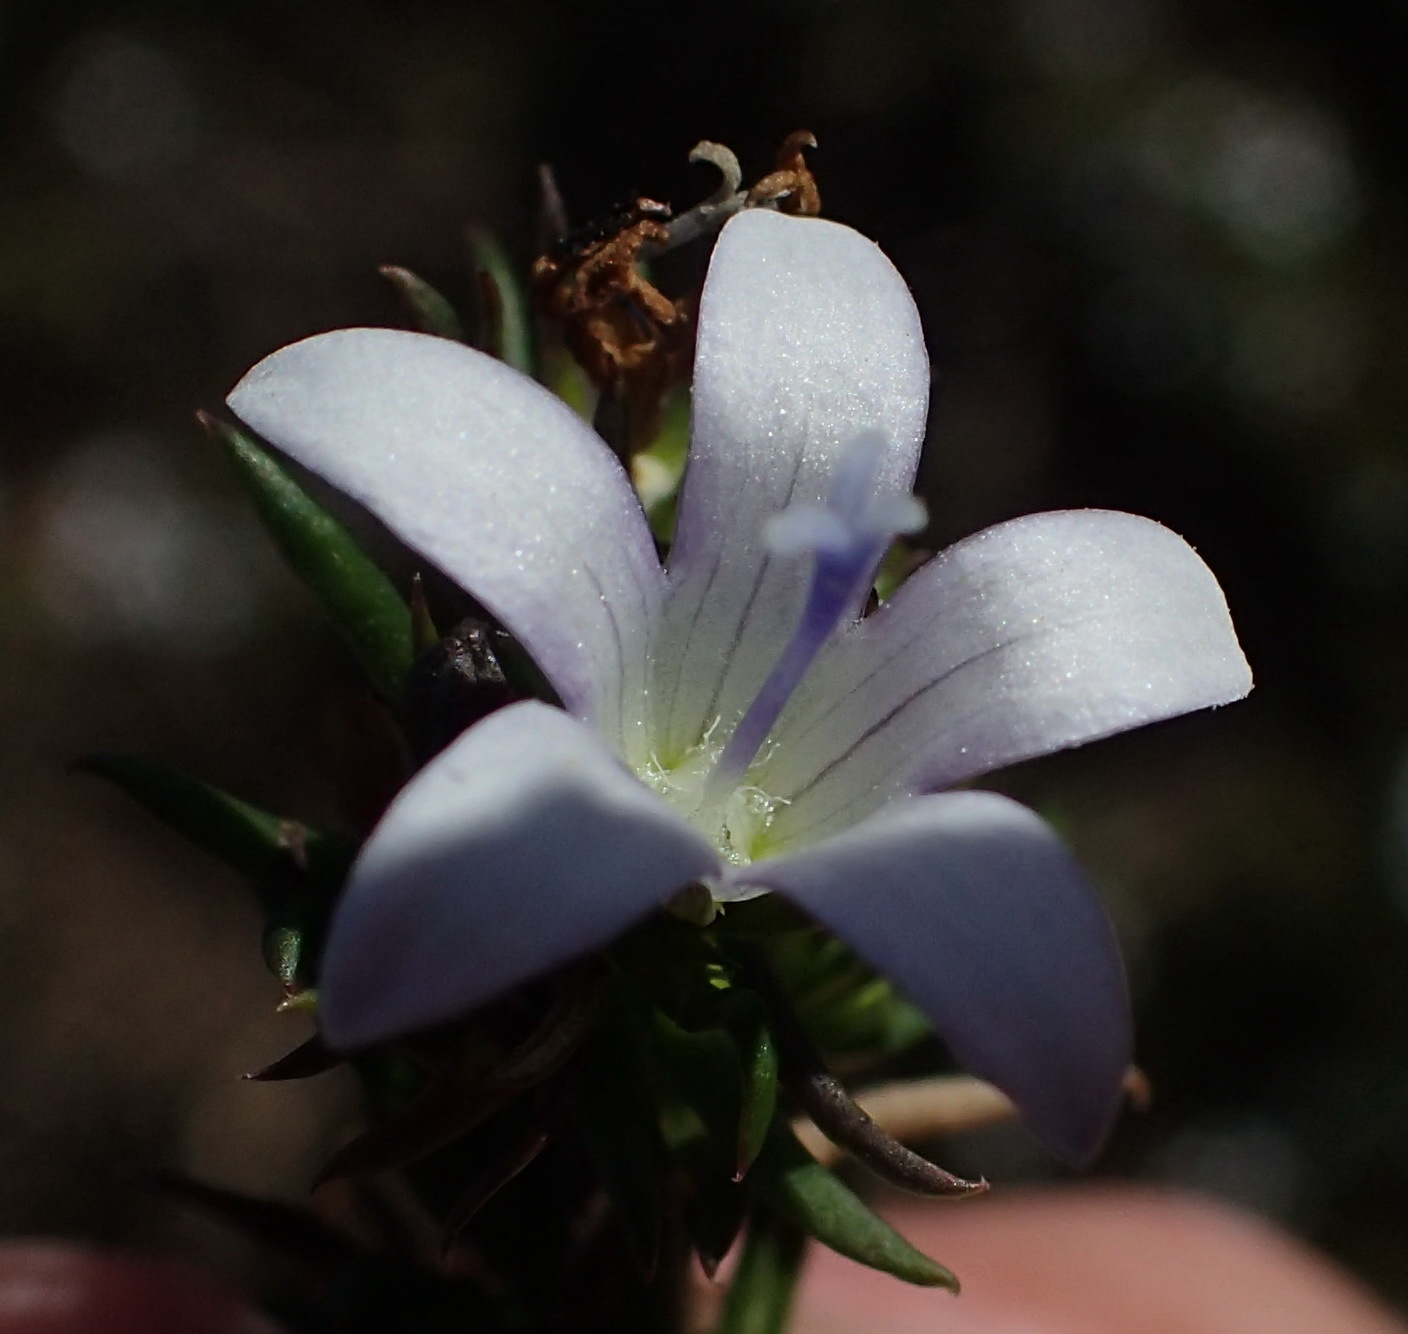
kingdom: Plantae
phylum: Tracheophyta
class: Magnoliopsida
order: Asterales
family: Campanulaceae
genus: Wahlenbergia
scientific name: Wahlenbergia thunbergii
